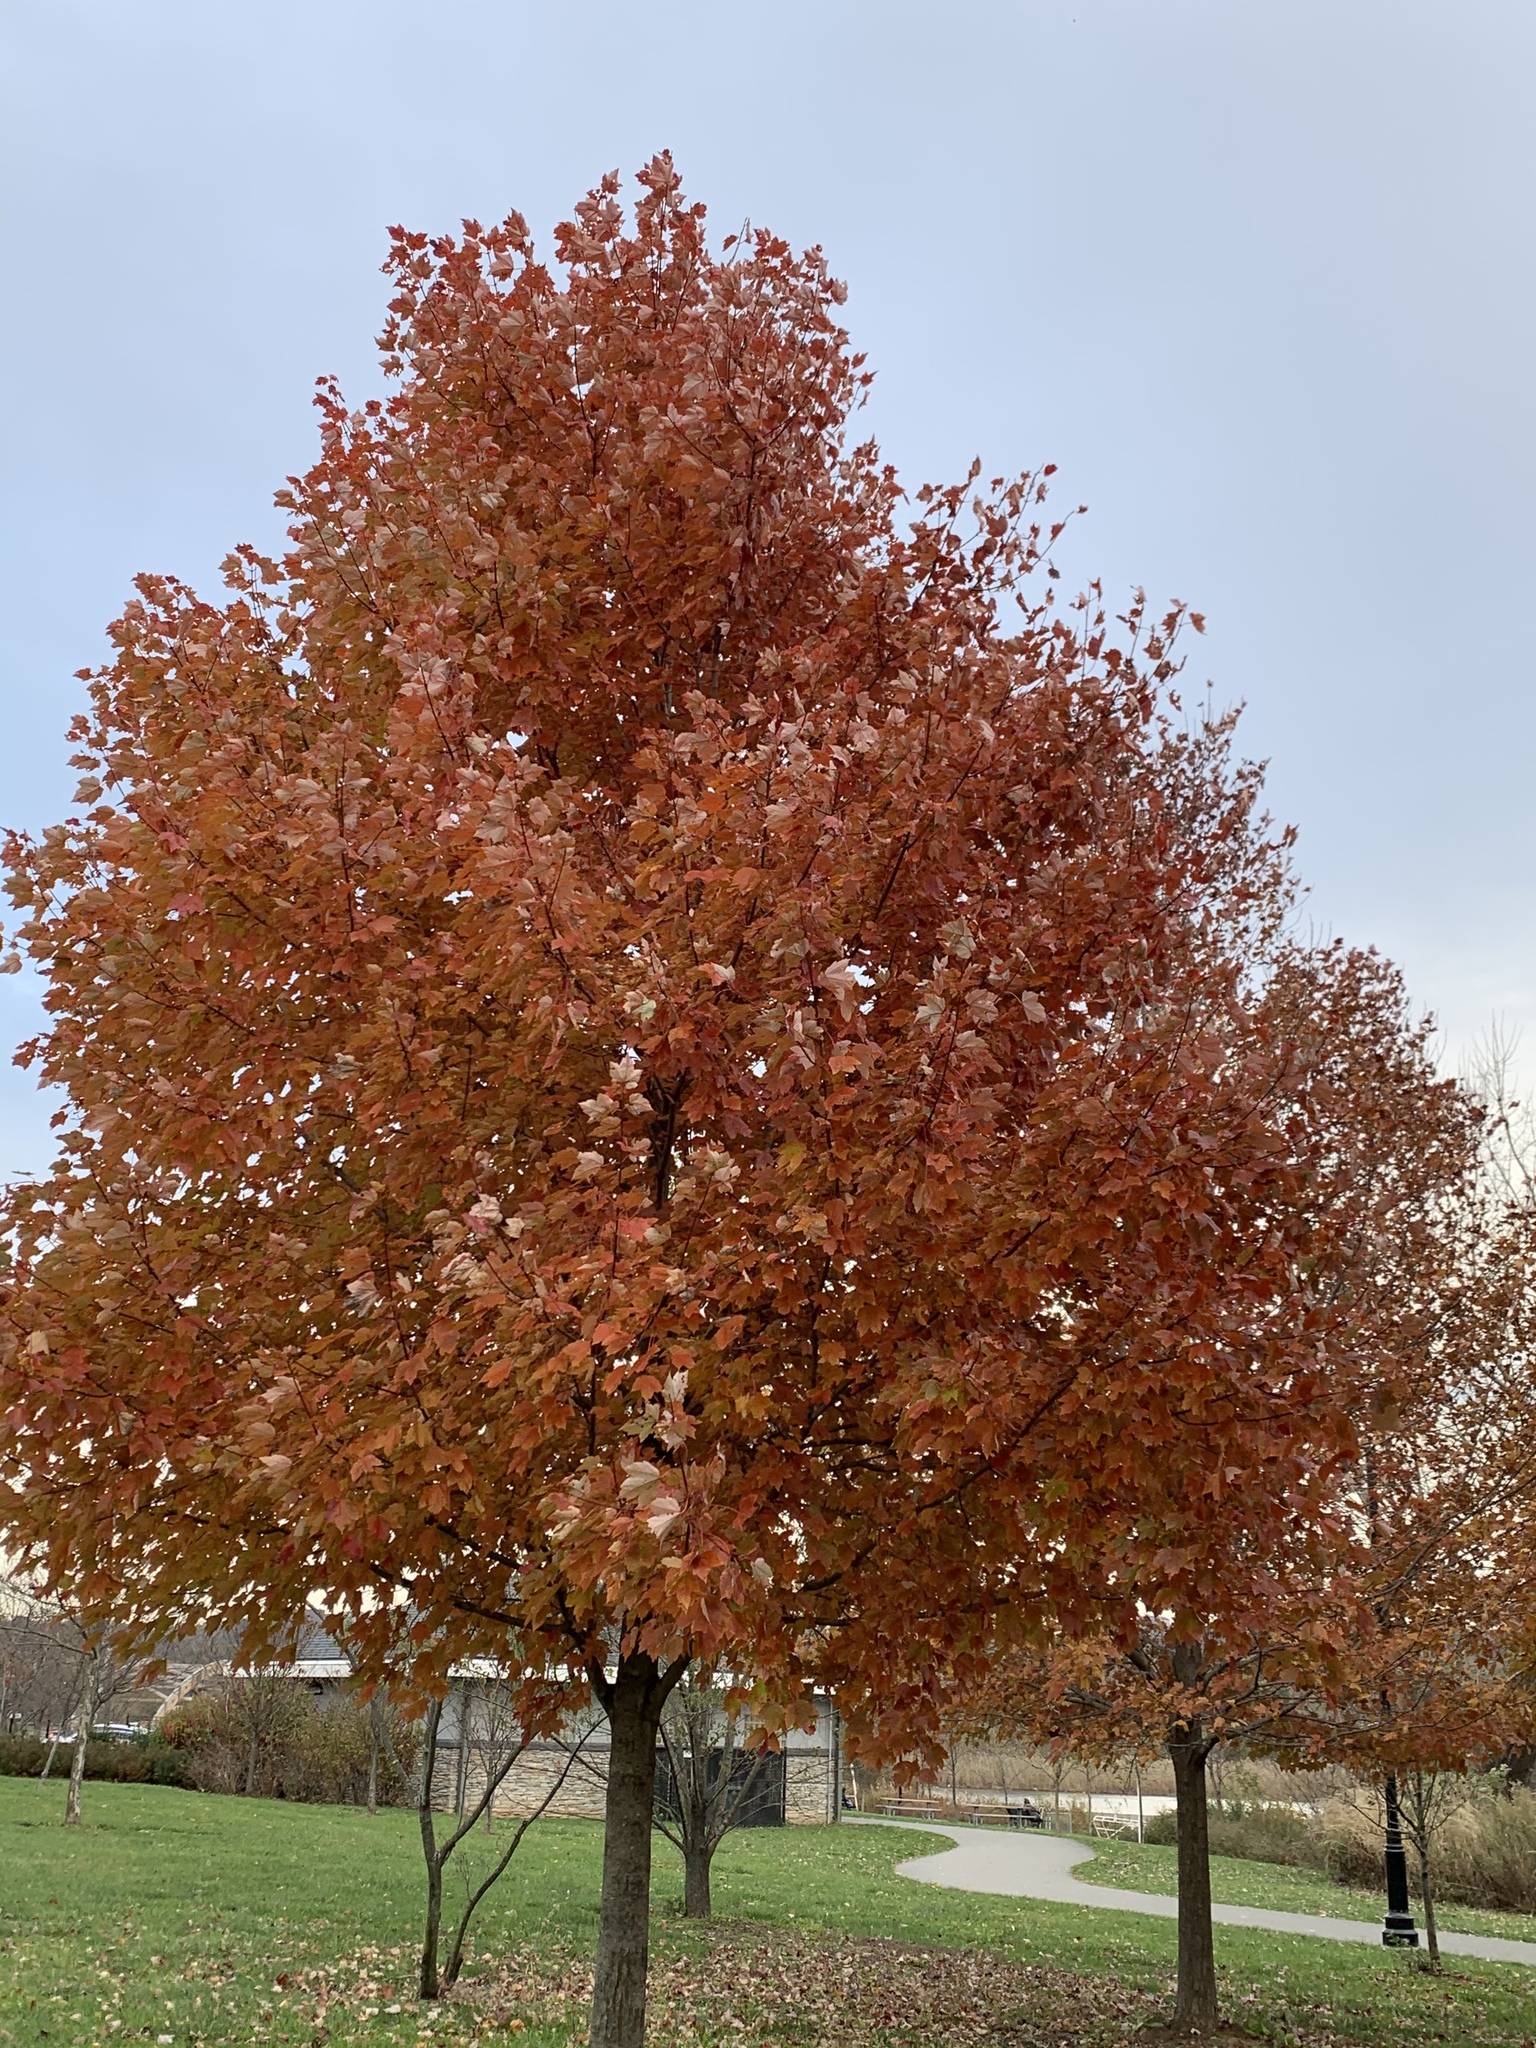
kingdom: Plantae
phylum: Tracheophyta
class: Magnoliopsida
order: Asterales
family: Asteraceae
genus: Rudbeckia
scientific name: Rudbeckia hirta
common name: Black-eyed-susan
